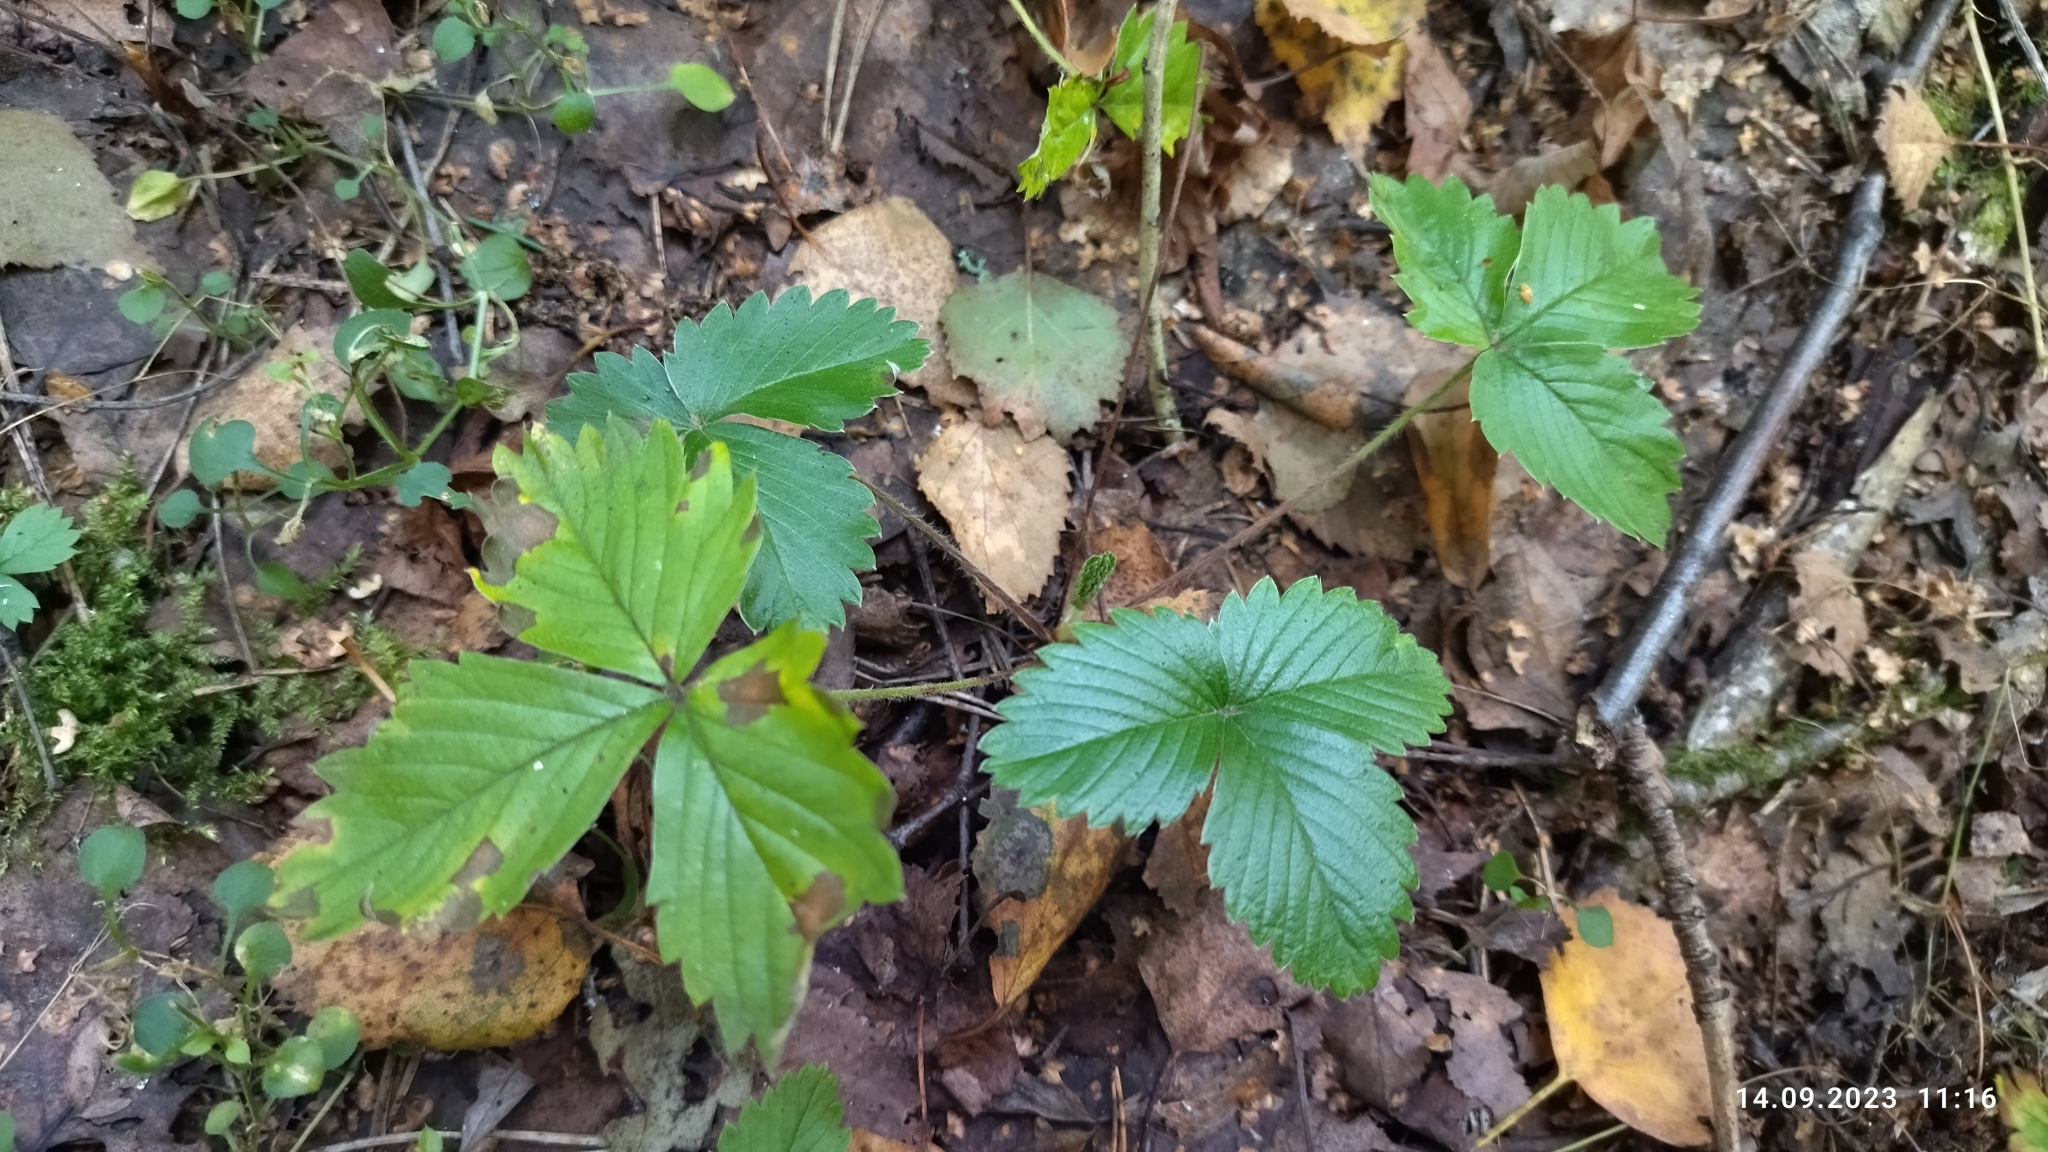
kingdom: Plantae
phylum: Tracheophyta
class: Magnoliopsida
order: Rosales
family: Rosaceae
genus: Fragaria
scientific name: Fragaria vesca
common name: Wild strawberry
